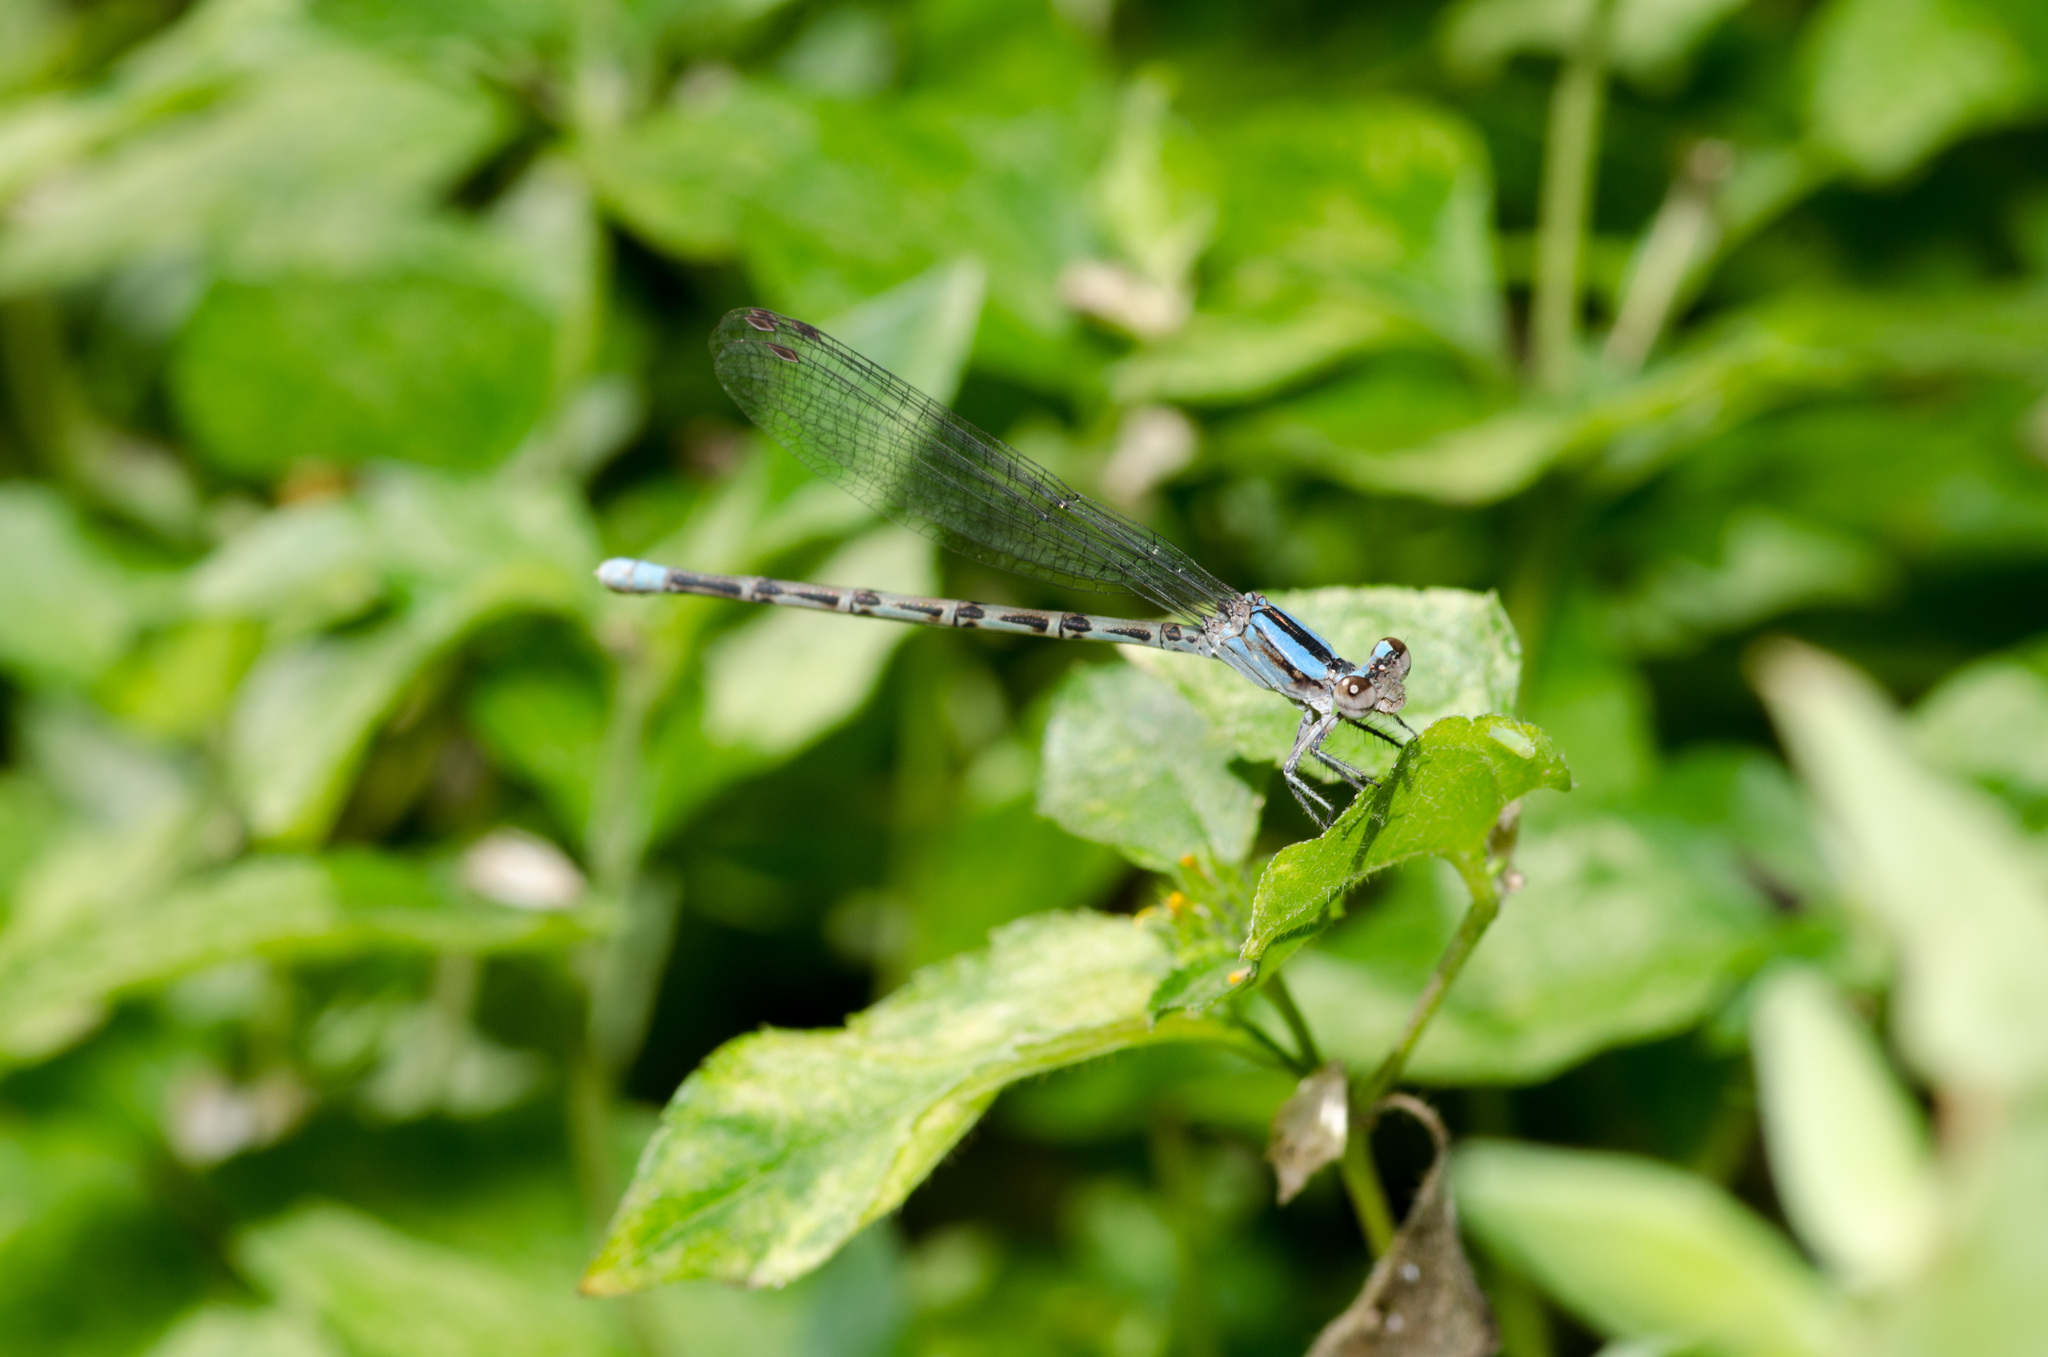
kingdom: Animalia
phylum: Arthropoda
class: Insecta
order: Odonata
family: Coenagrionidae
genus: Argia
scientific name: Argia immunda
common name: Kiowa dancer
